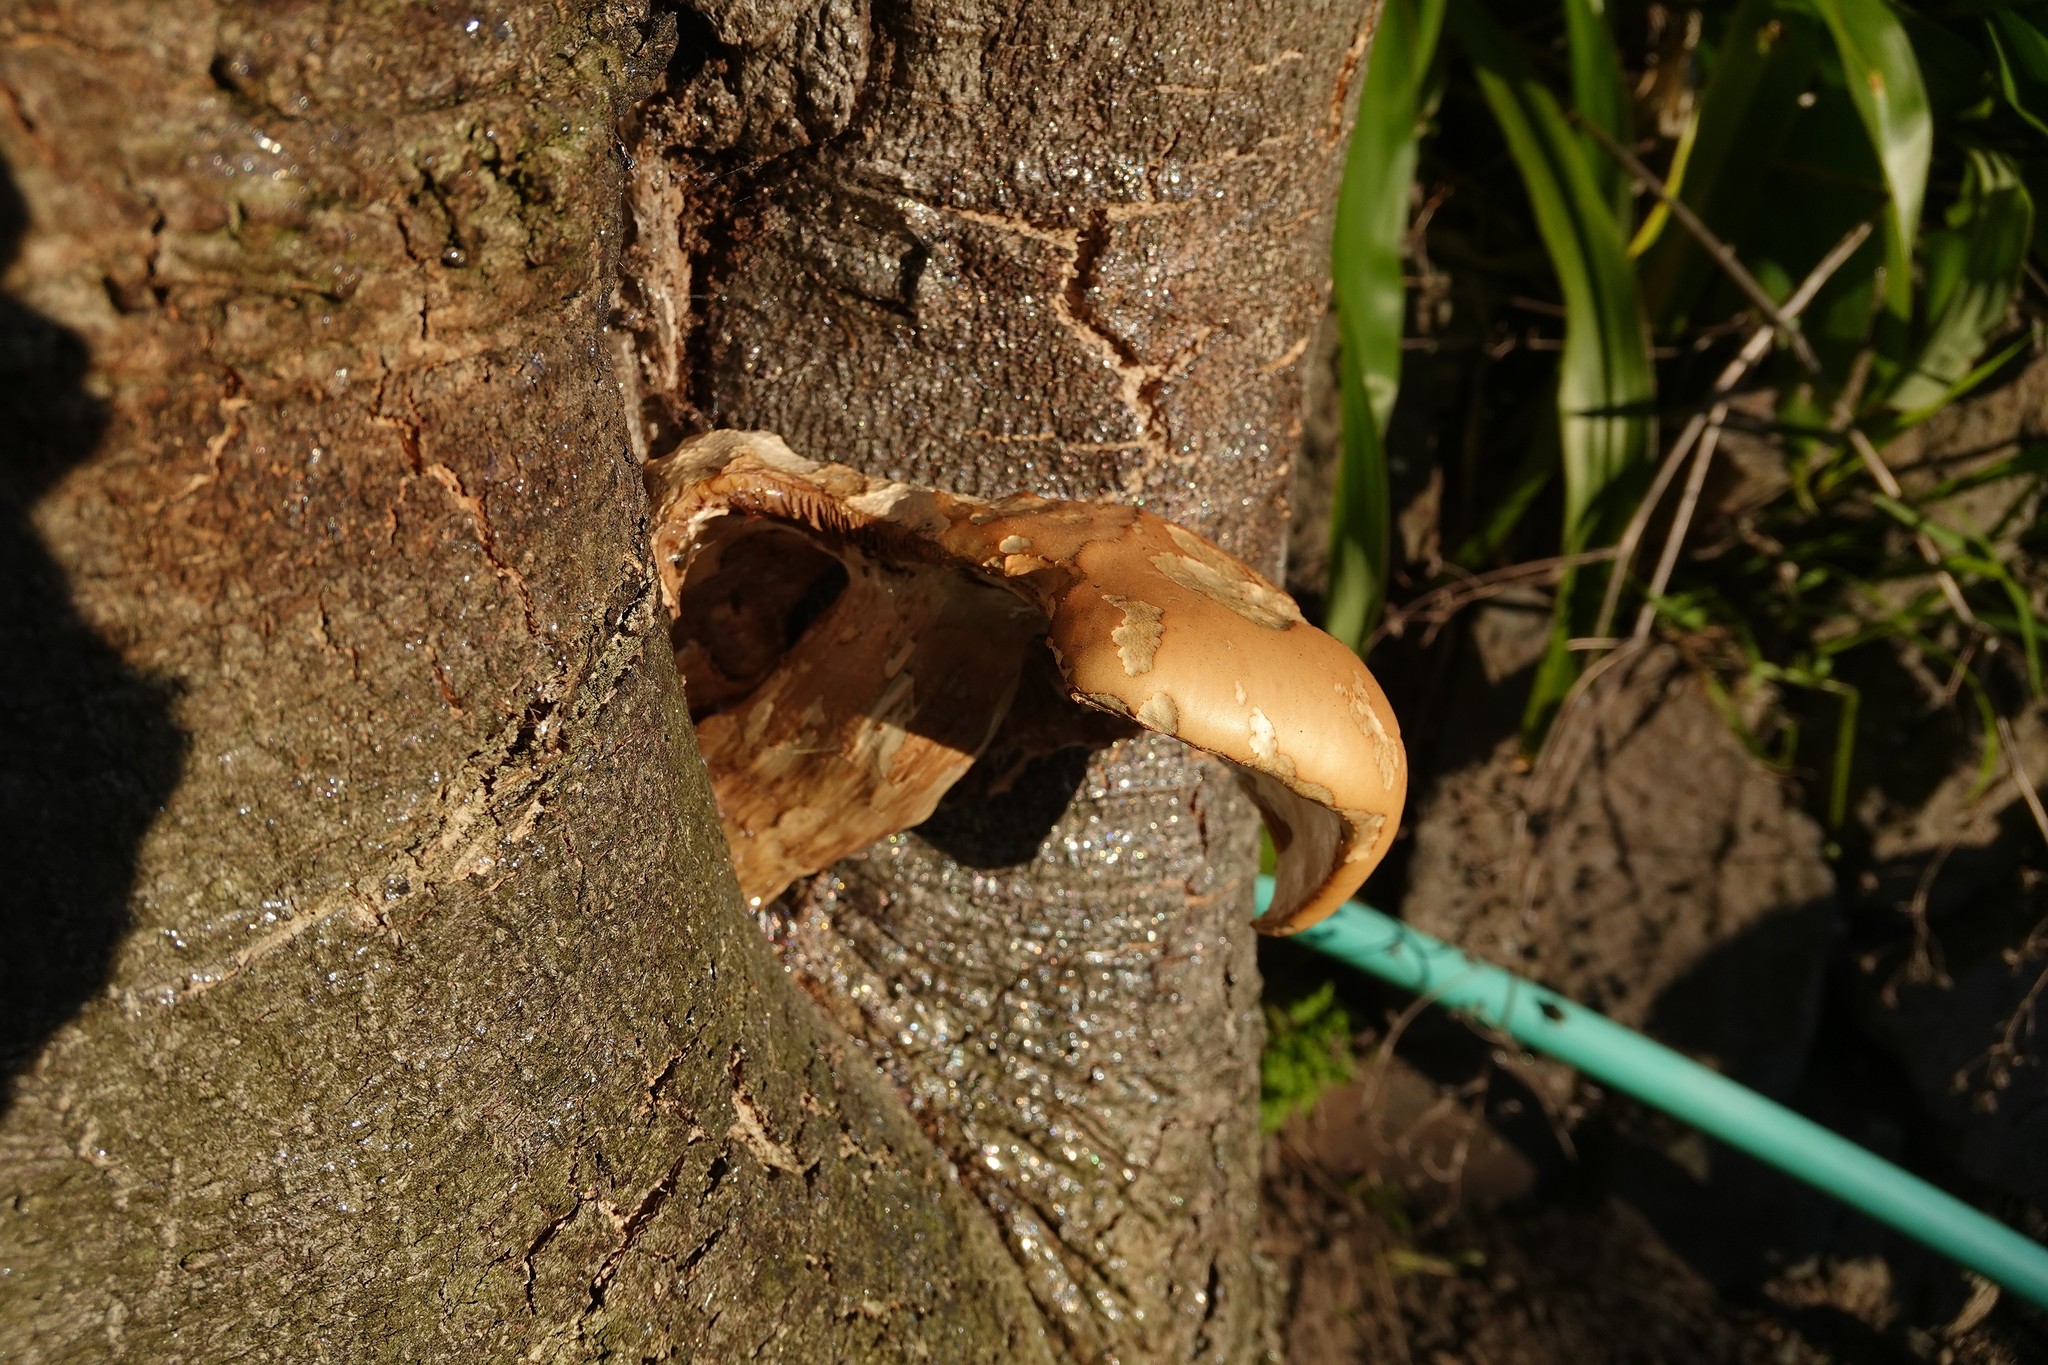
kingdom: Fungi
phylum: Basidiomycota
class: Agaricomycetes
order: Agaricales
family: Tubariaceae
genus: Cyclocybe
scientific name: Cyclocybe parasitica
